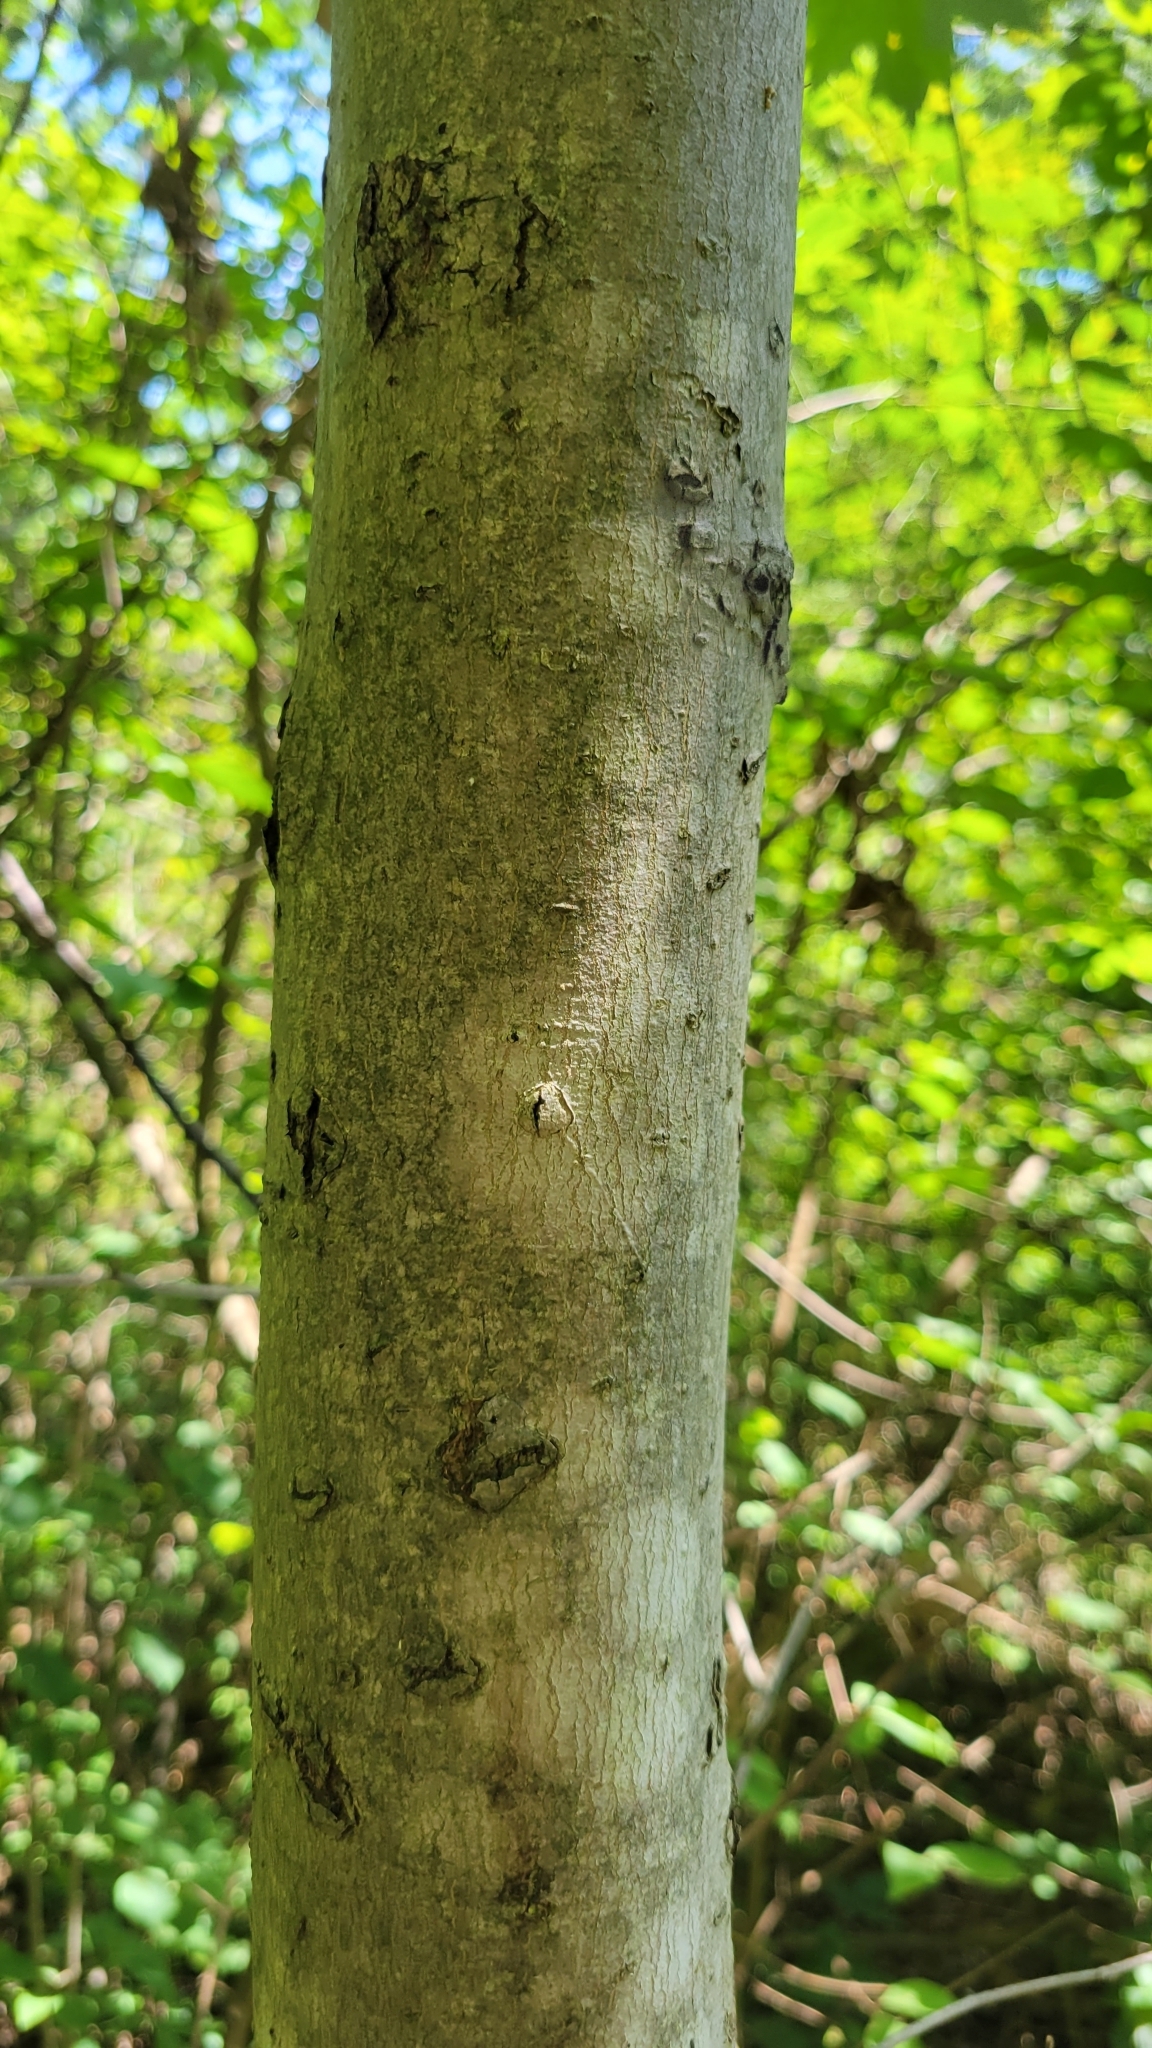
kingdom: Plantae
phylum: Tracheophyta
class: Magnoliopsida
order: Sapindales
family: Sapindaceae
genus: Acer
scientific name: Acer rubrum
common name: Red maple
